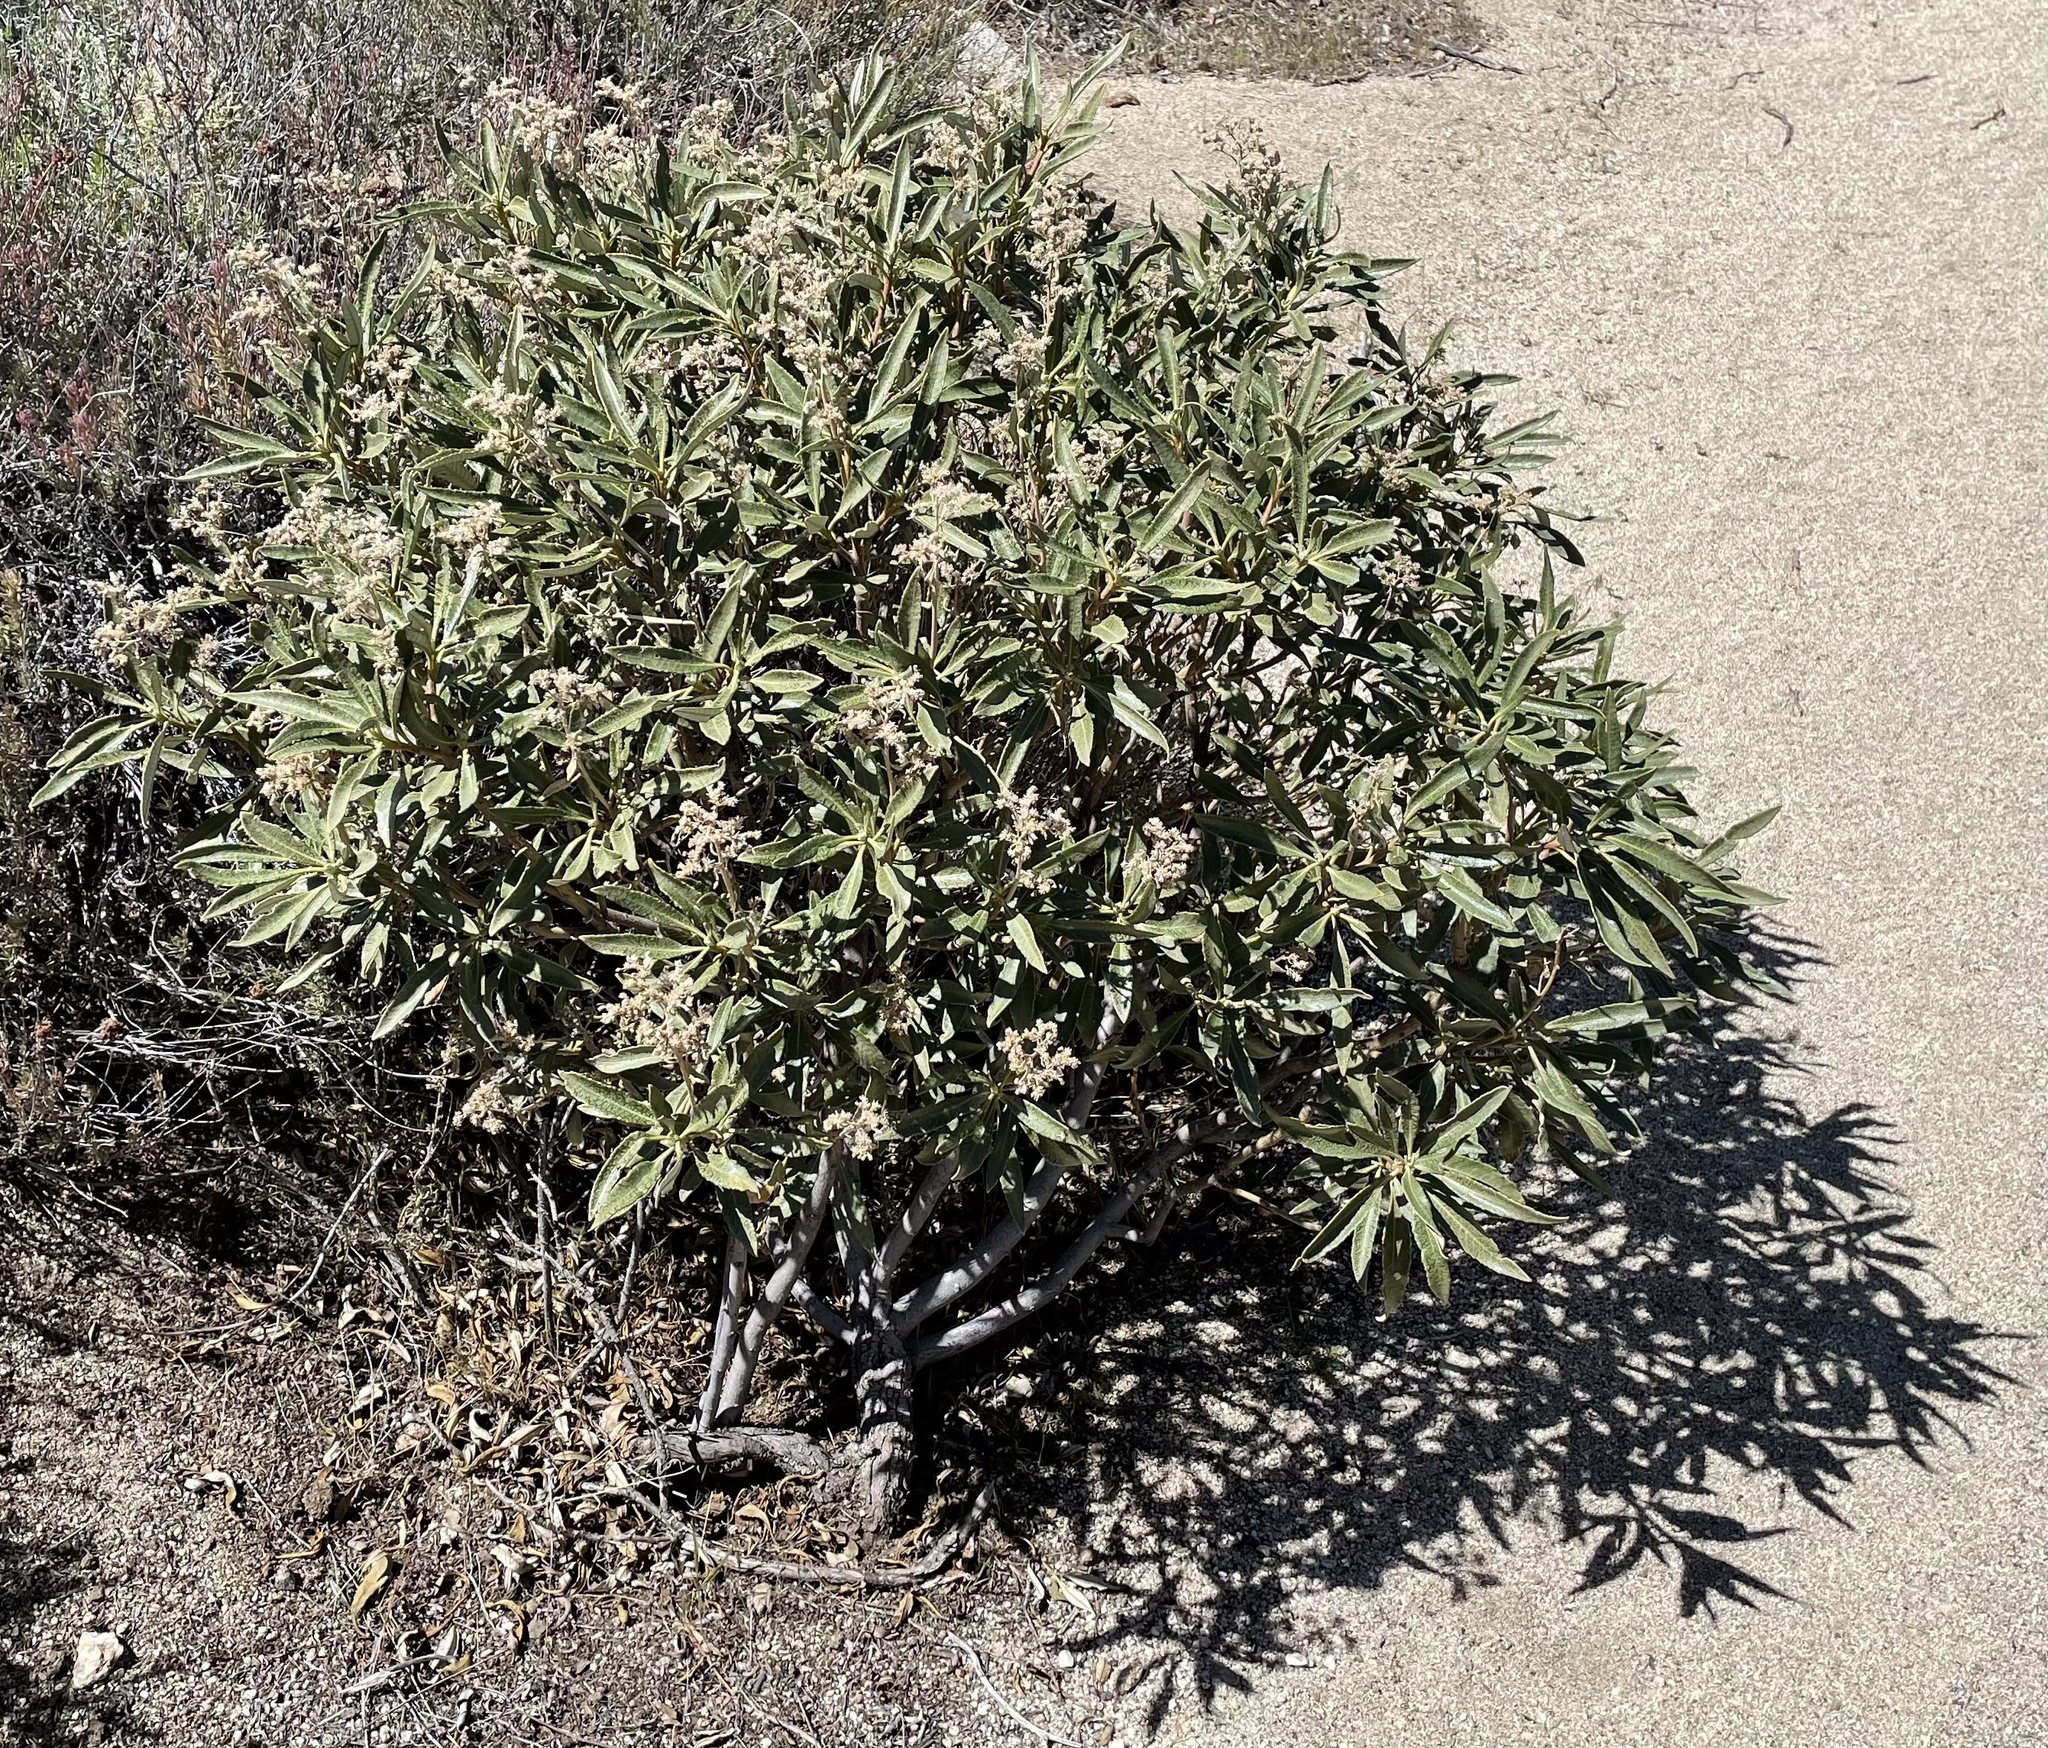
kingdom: Plantae
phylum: Tracheophyta
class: Magnoliopsida
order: Boraginales
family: Namaceae
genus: Eriodictyon
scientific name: Eriodictyon trichocalyx
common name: Hairy yerba-santa
